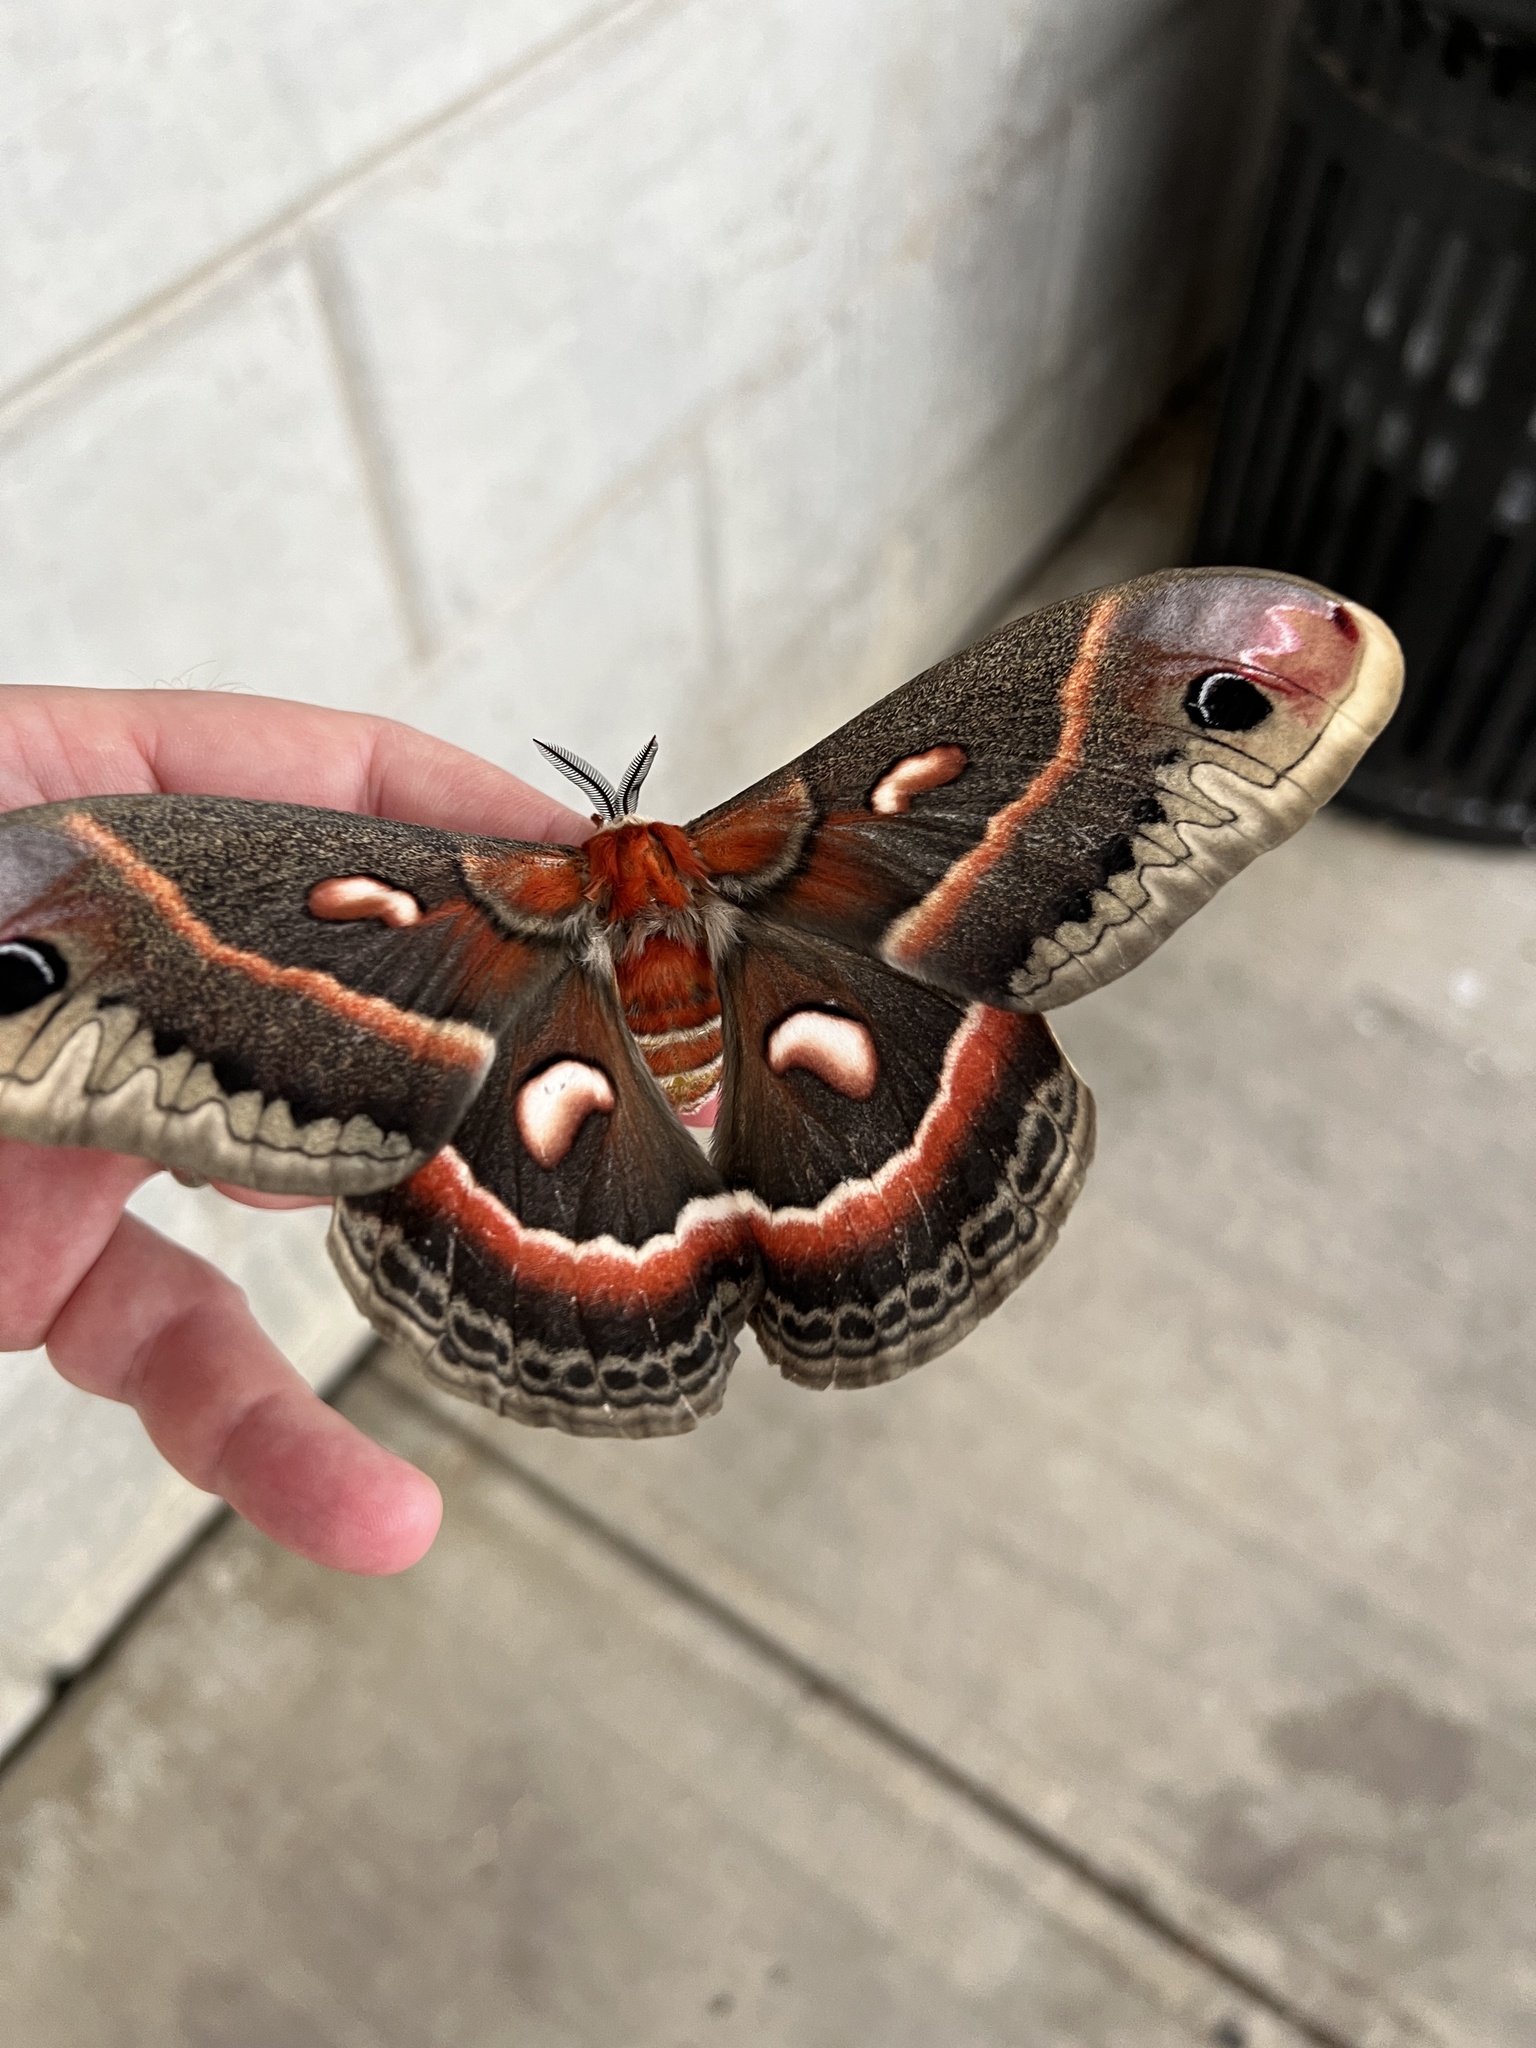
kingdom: Animalia
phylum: Arthropoda
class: Insecta
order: Lepidoptera
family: Saturniidae
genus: Hyalophora
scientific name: Hyalophora cecropia
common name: Cecropia silkmoth
